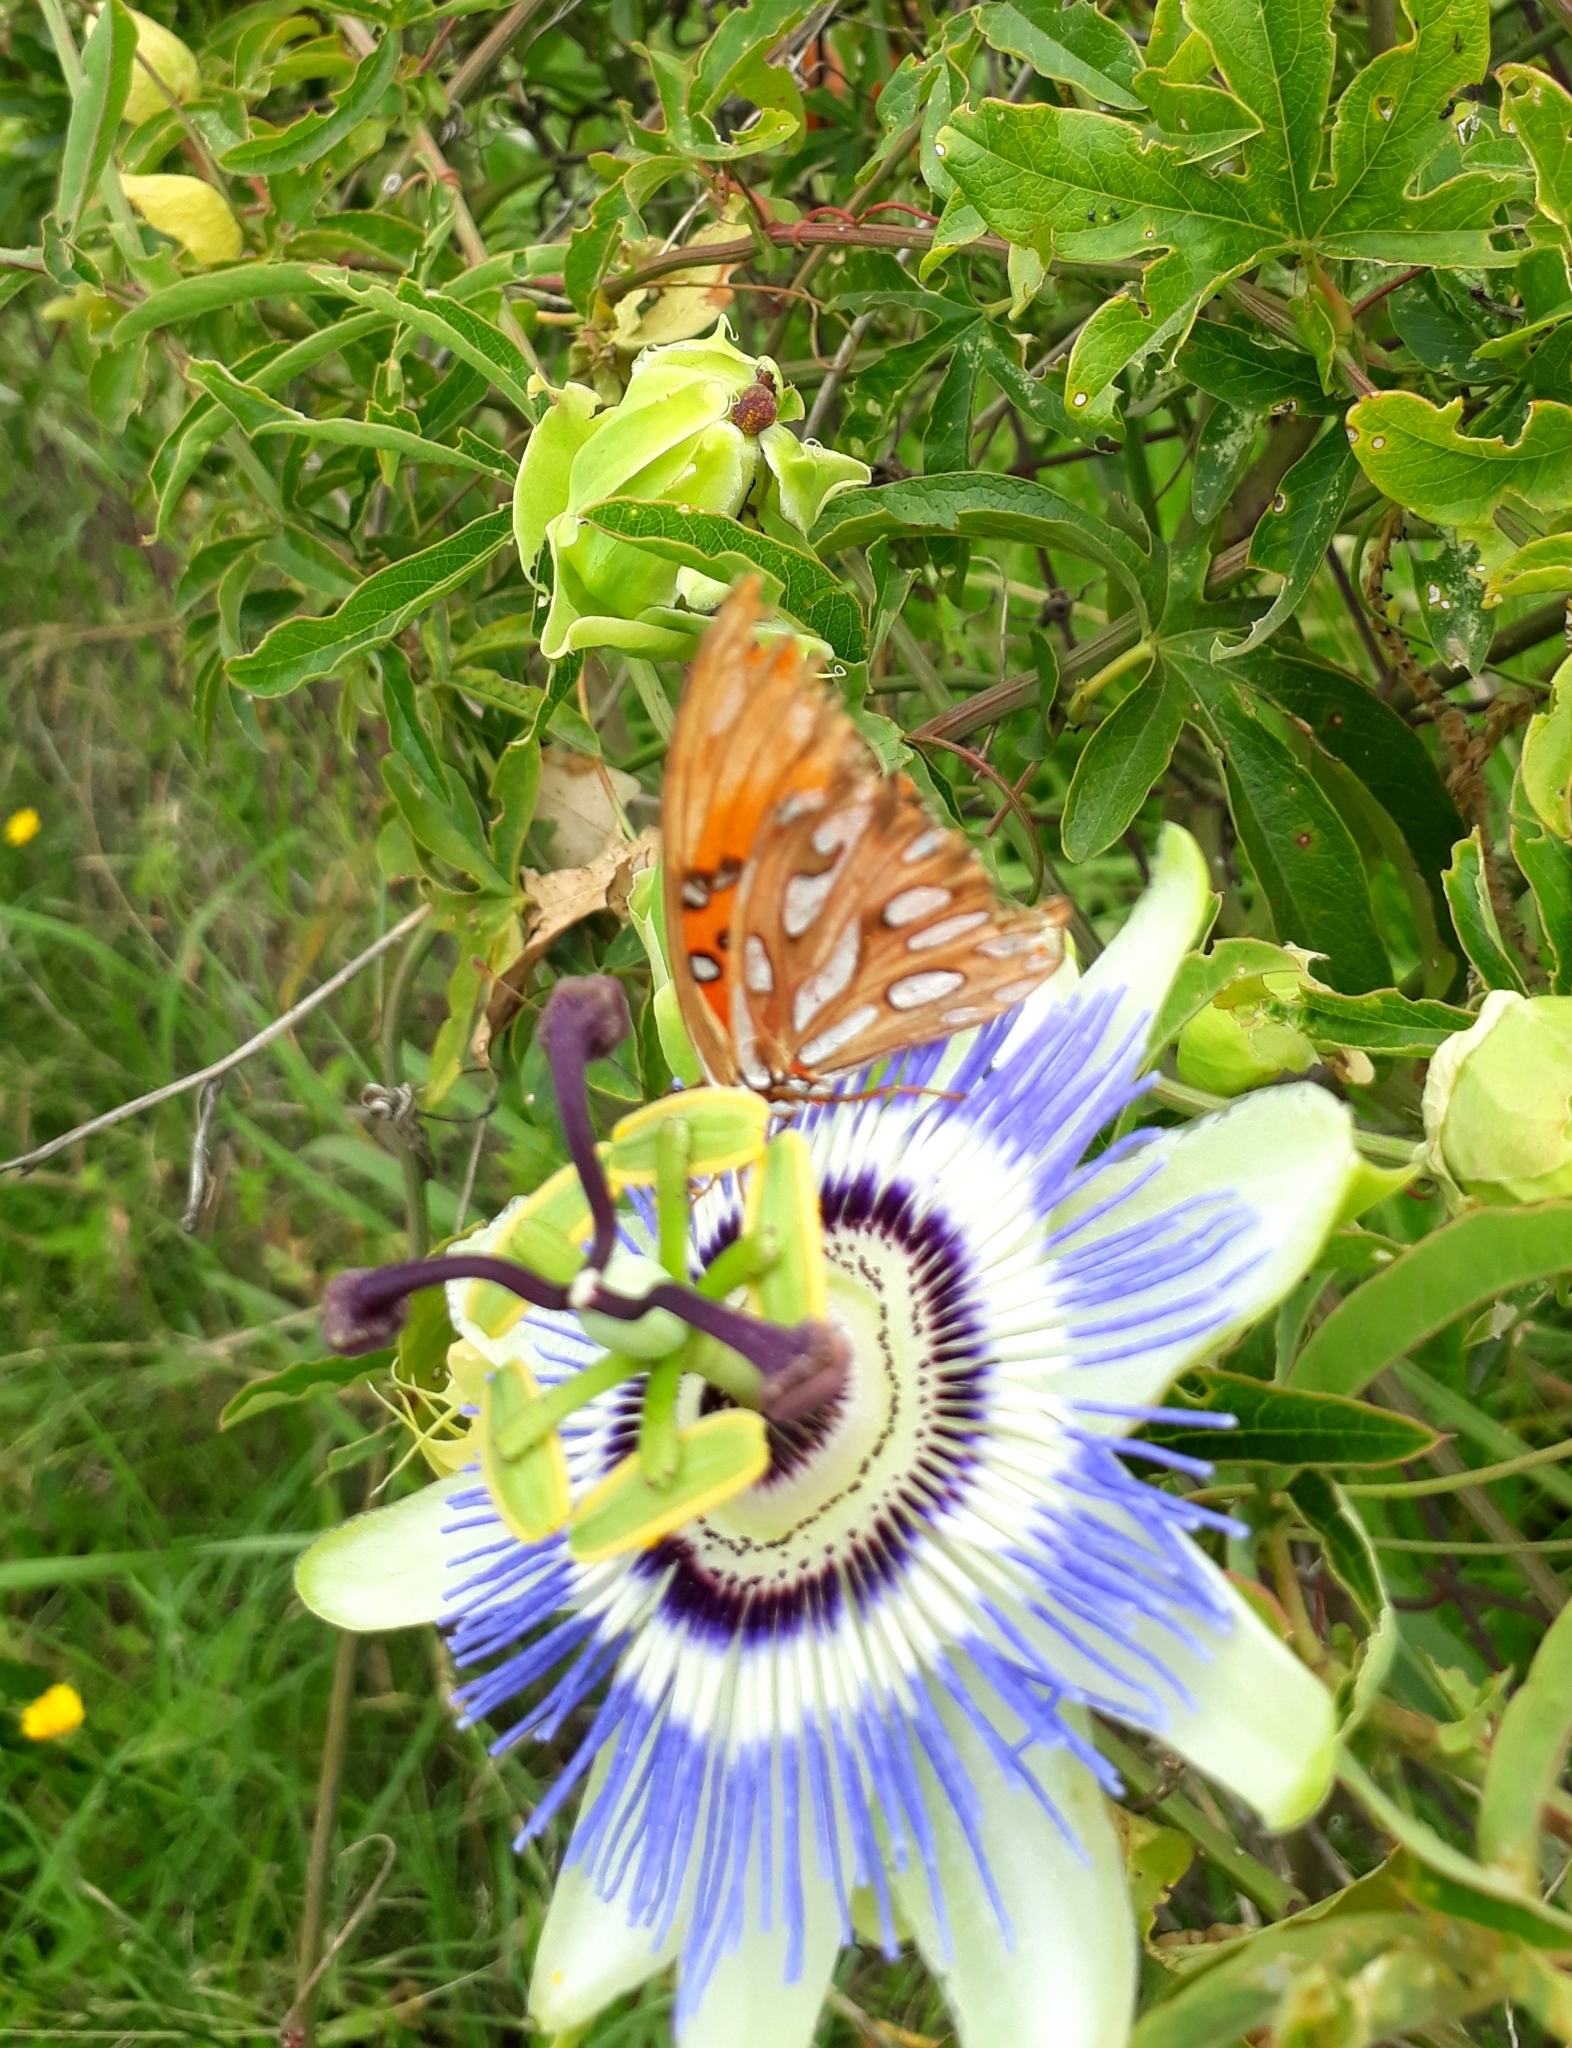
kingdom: Animalia
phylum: Arthropoda
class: Insecta
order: Lepidoptera
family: Nymphalidae
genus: Dione
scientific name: Dione vanillae
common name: Gulf fritillary
